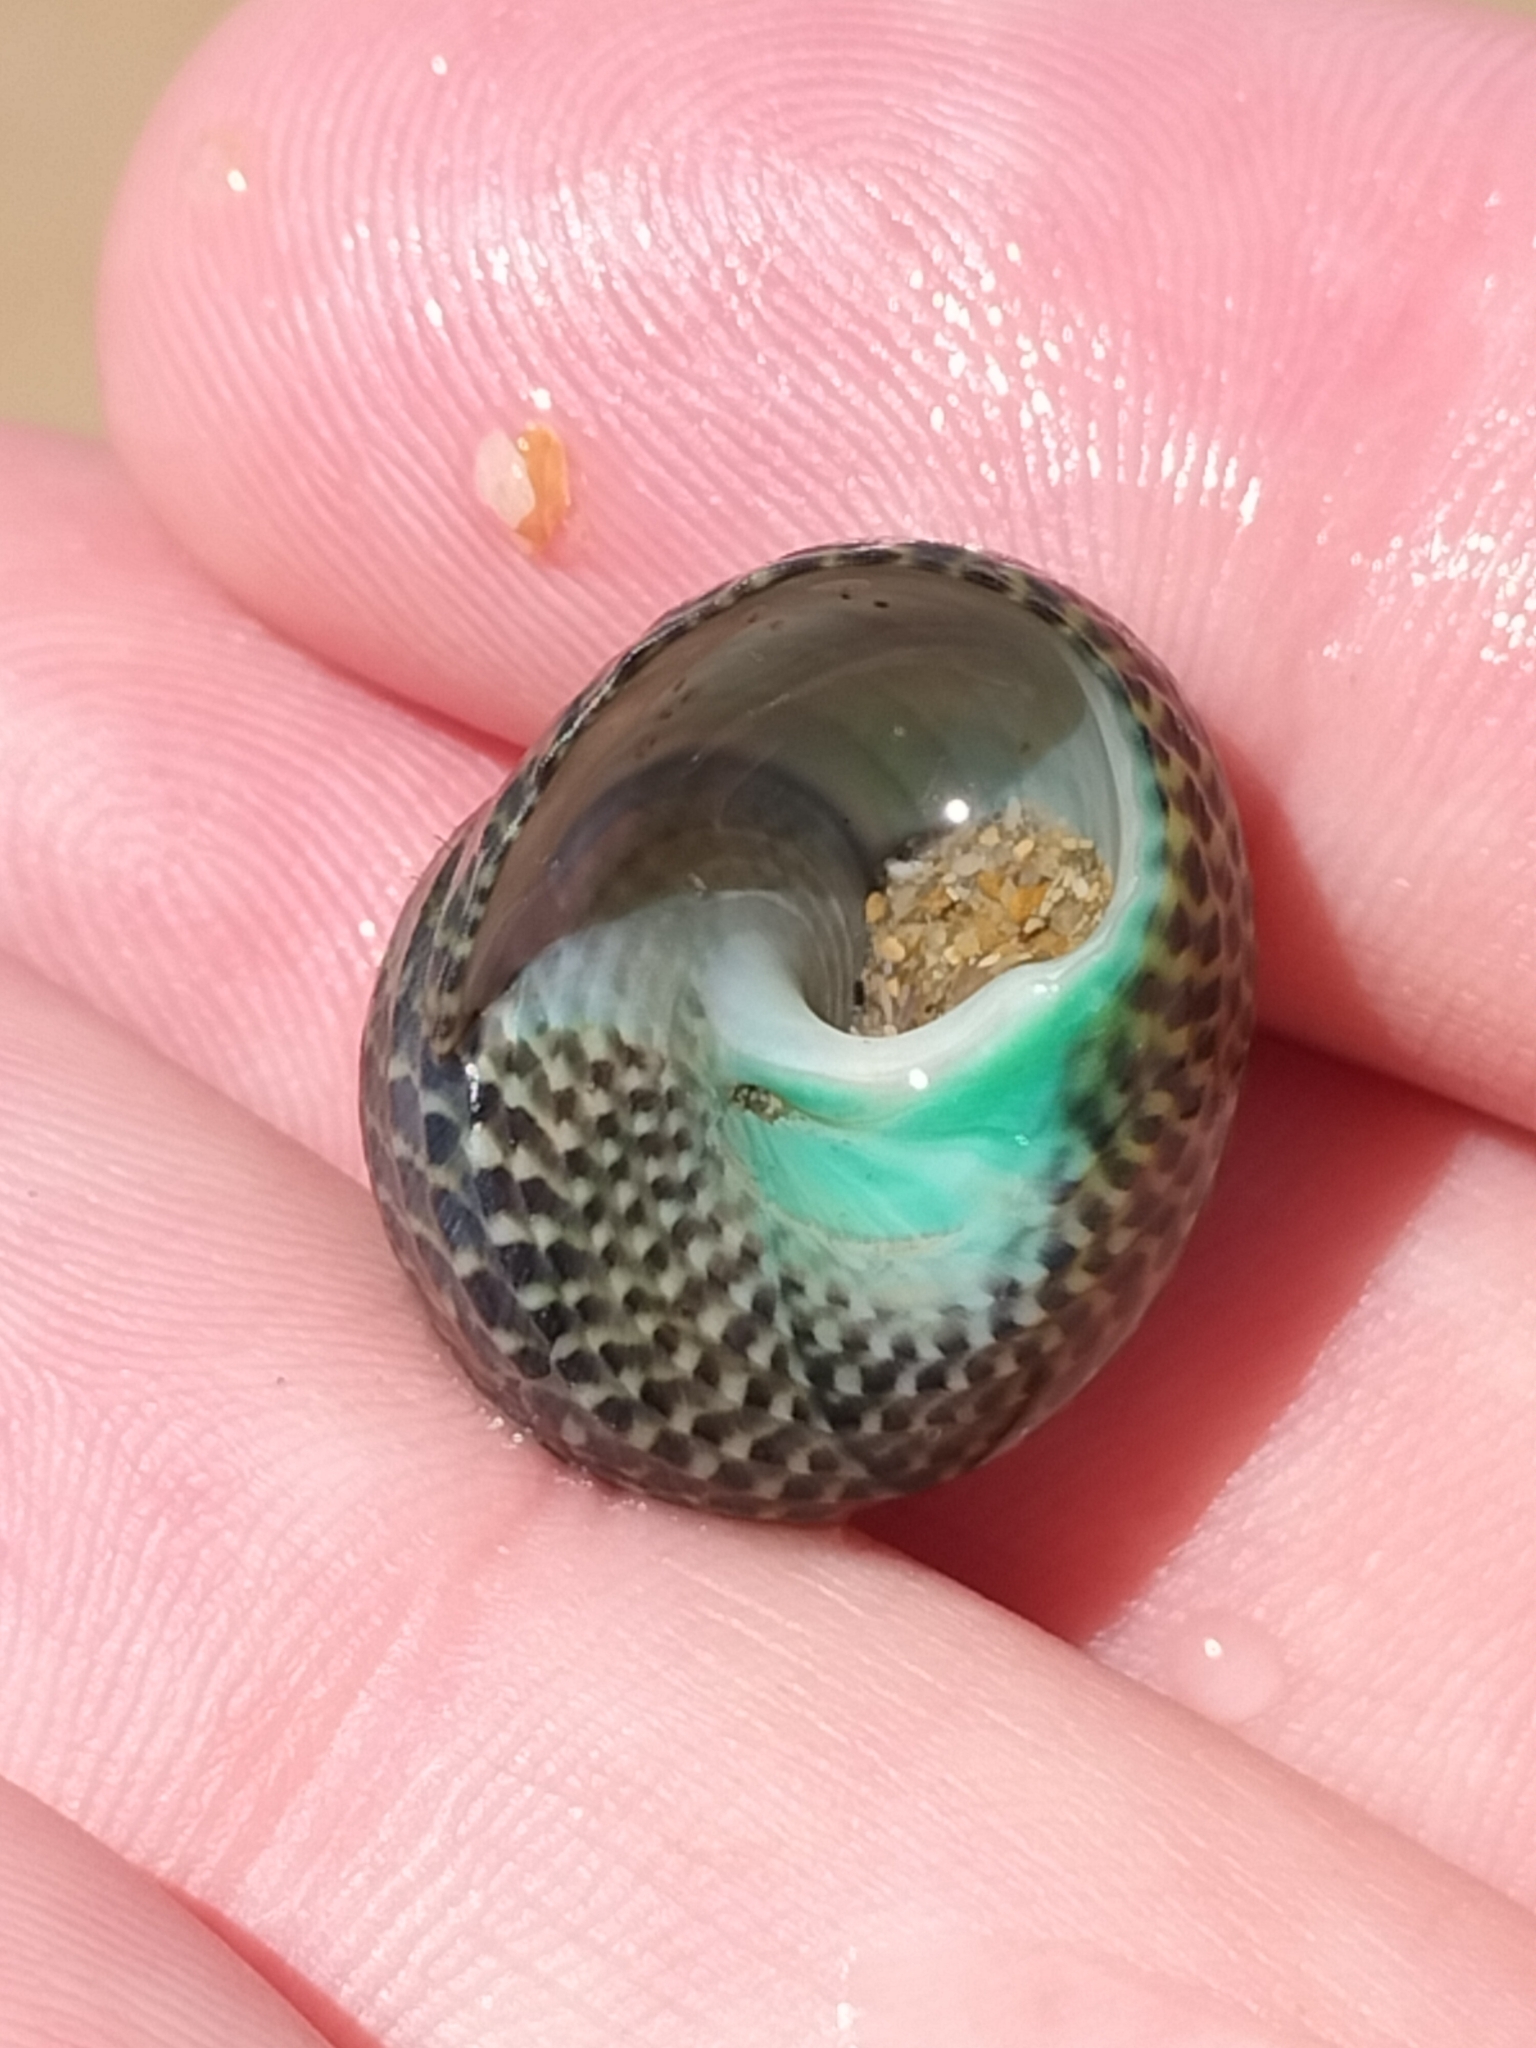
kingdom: Animalia
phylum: Mollusca
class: Gastropoda
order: Trochida
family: Trochidae
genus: Chlorodiloma
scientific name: Chlorodiloma adelaidae
